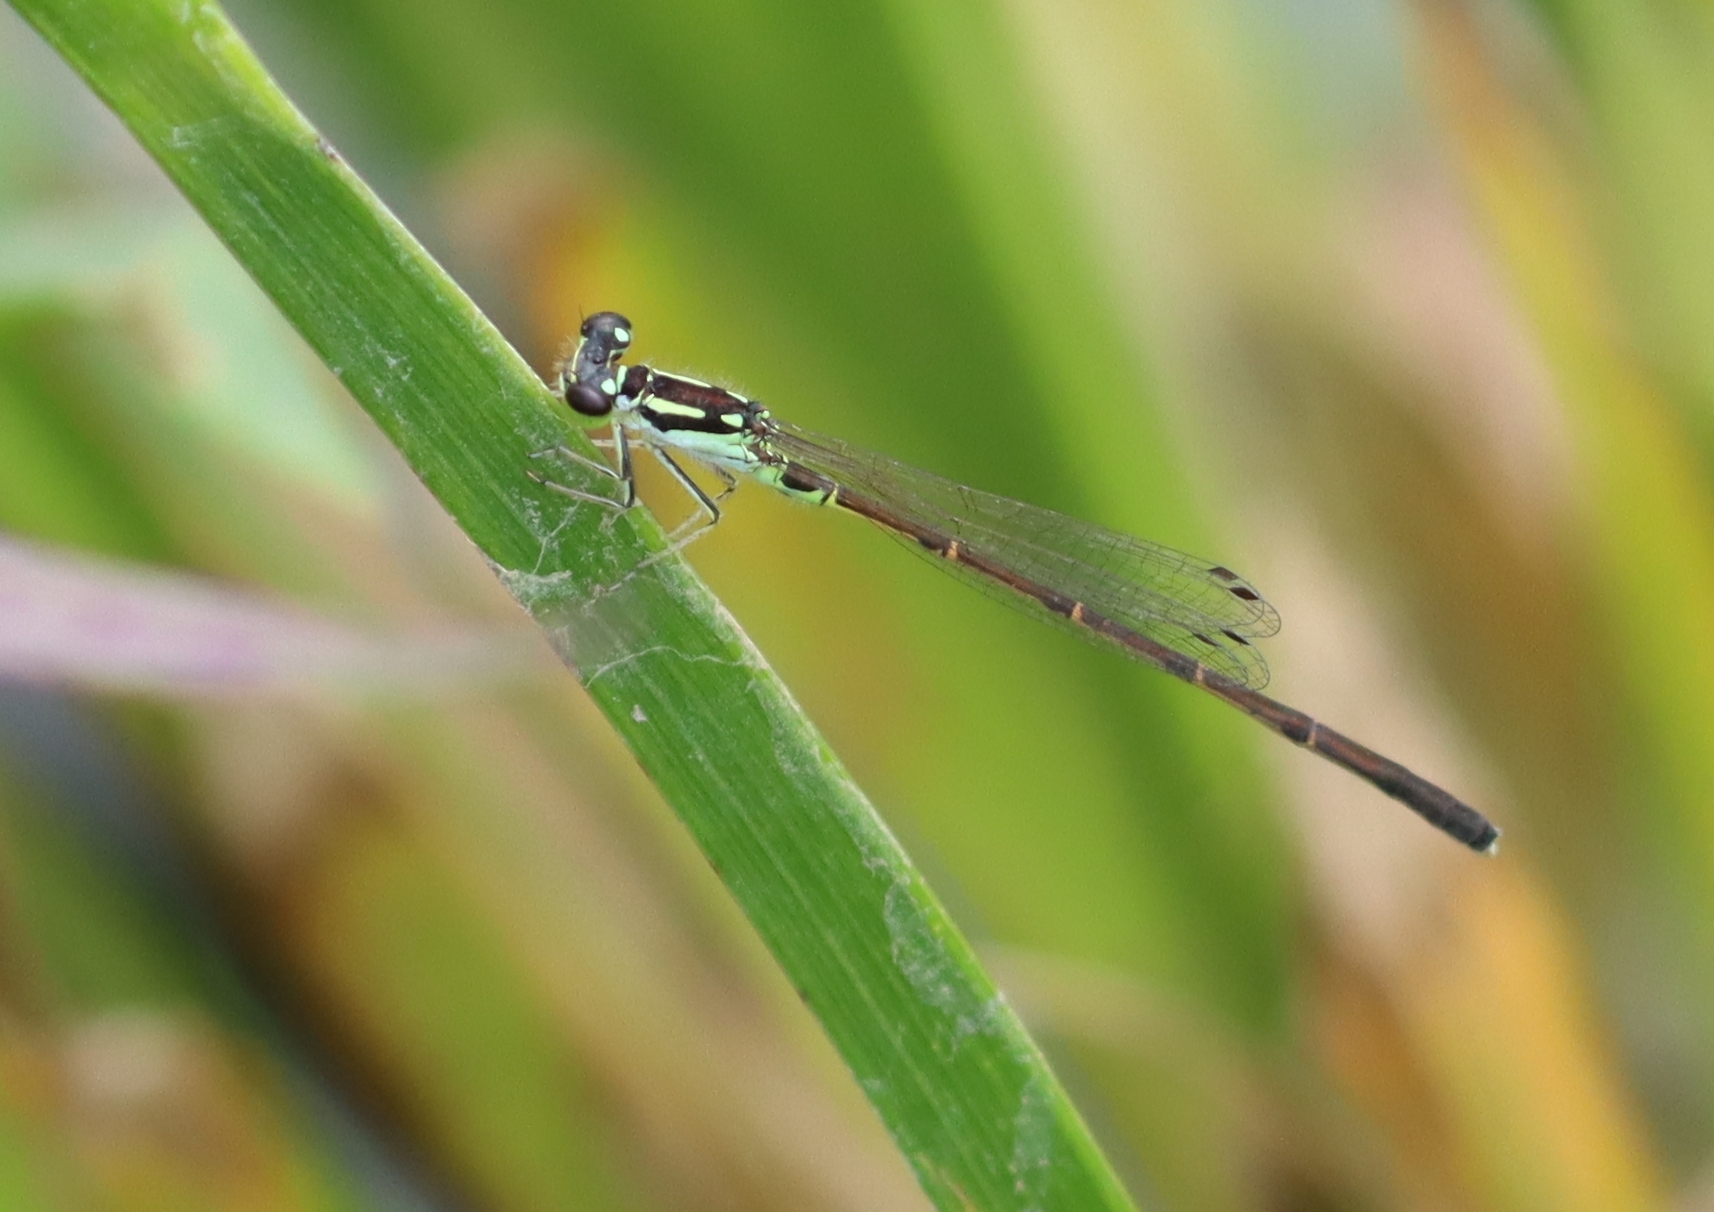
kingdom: Animalia
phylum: Arthropoda
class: Insecta
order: Odonata
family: Coenagrionidae
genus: Ischnura
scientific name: Ischnura posita
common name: Fragile forktail
